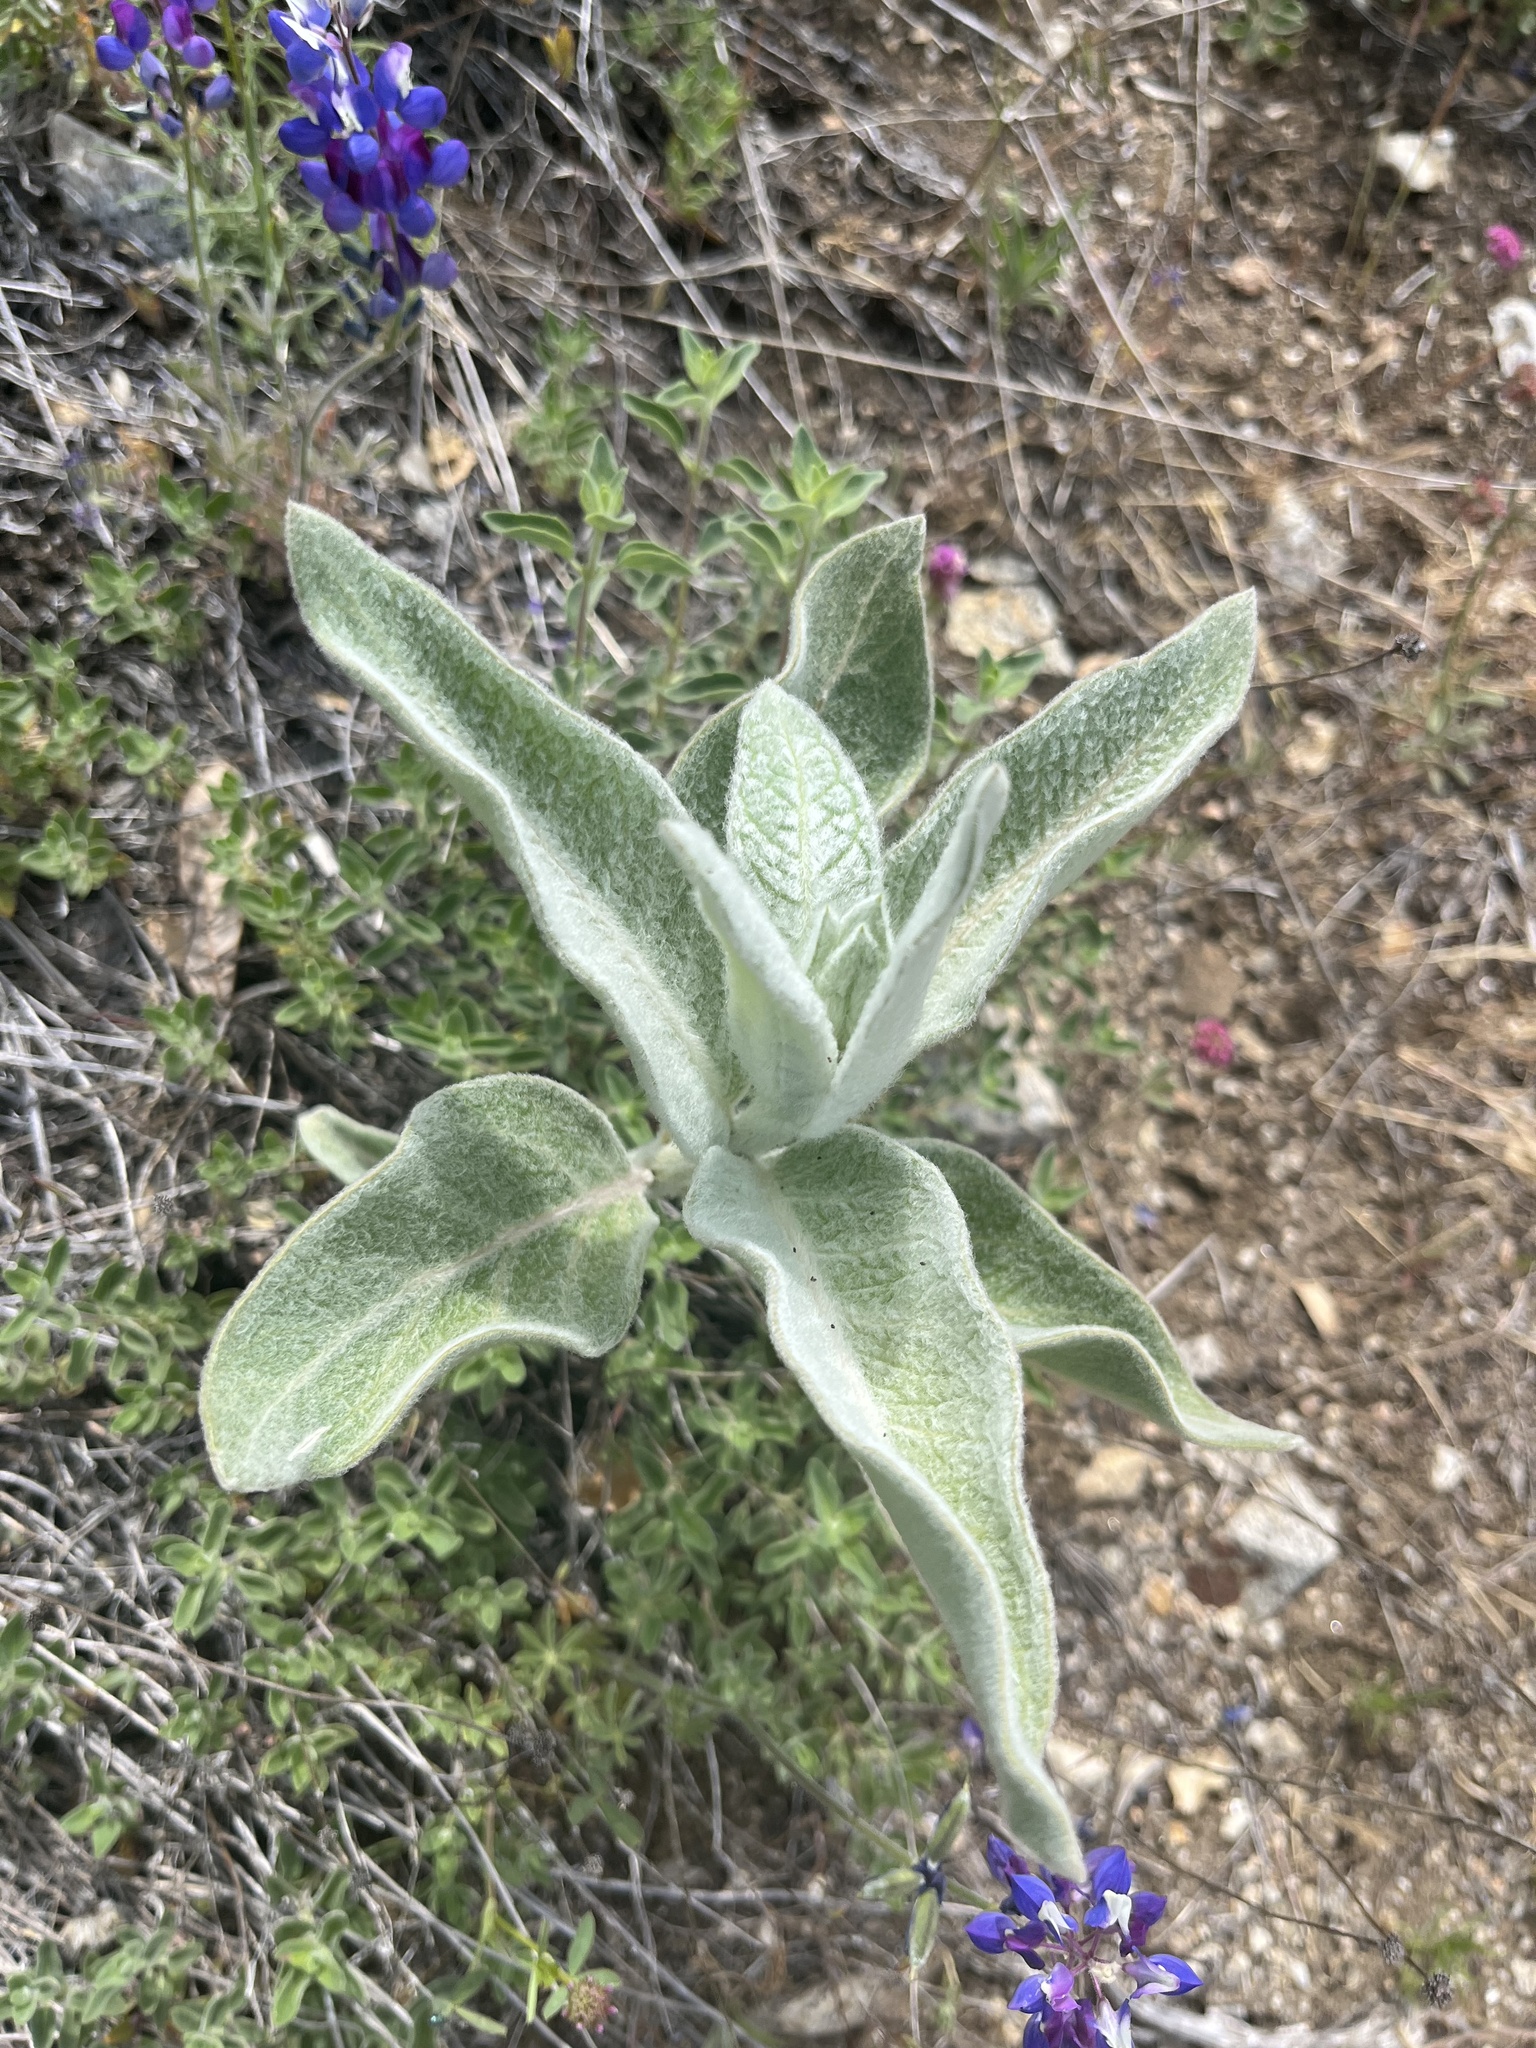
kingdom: Plantae
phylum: Tracheophyta
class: Magnoliopsida
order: Gentianales
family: Apocynaceae
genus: Asclepias
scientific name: Asclepias eriocarpa
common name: Indian milkweed
